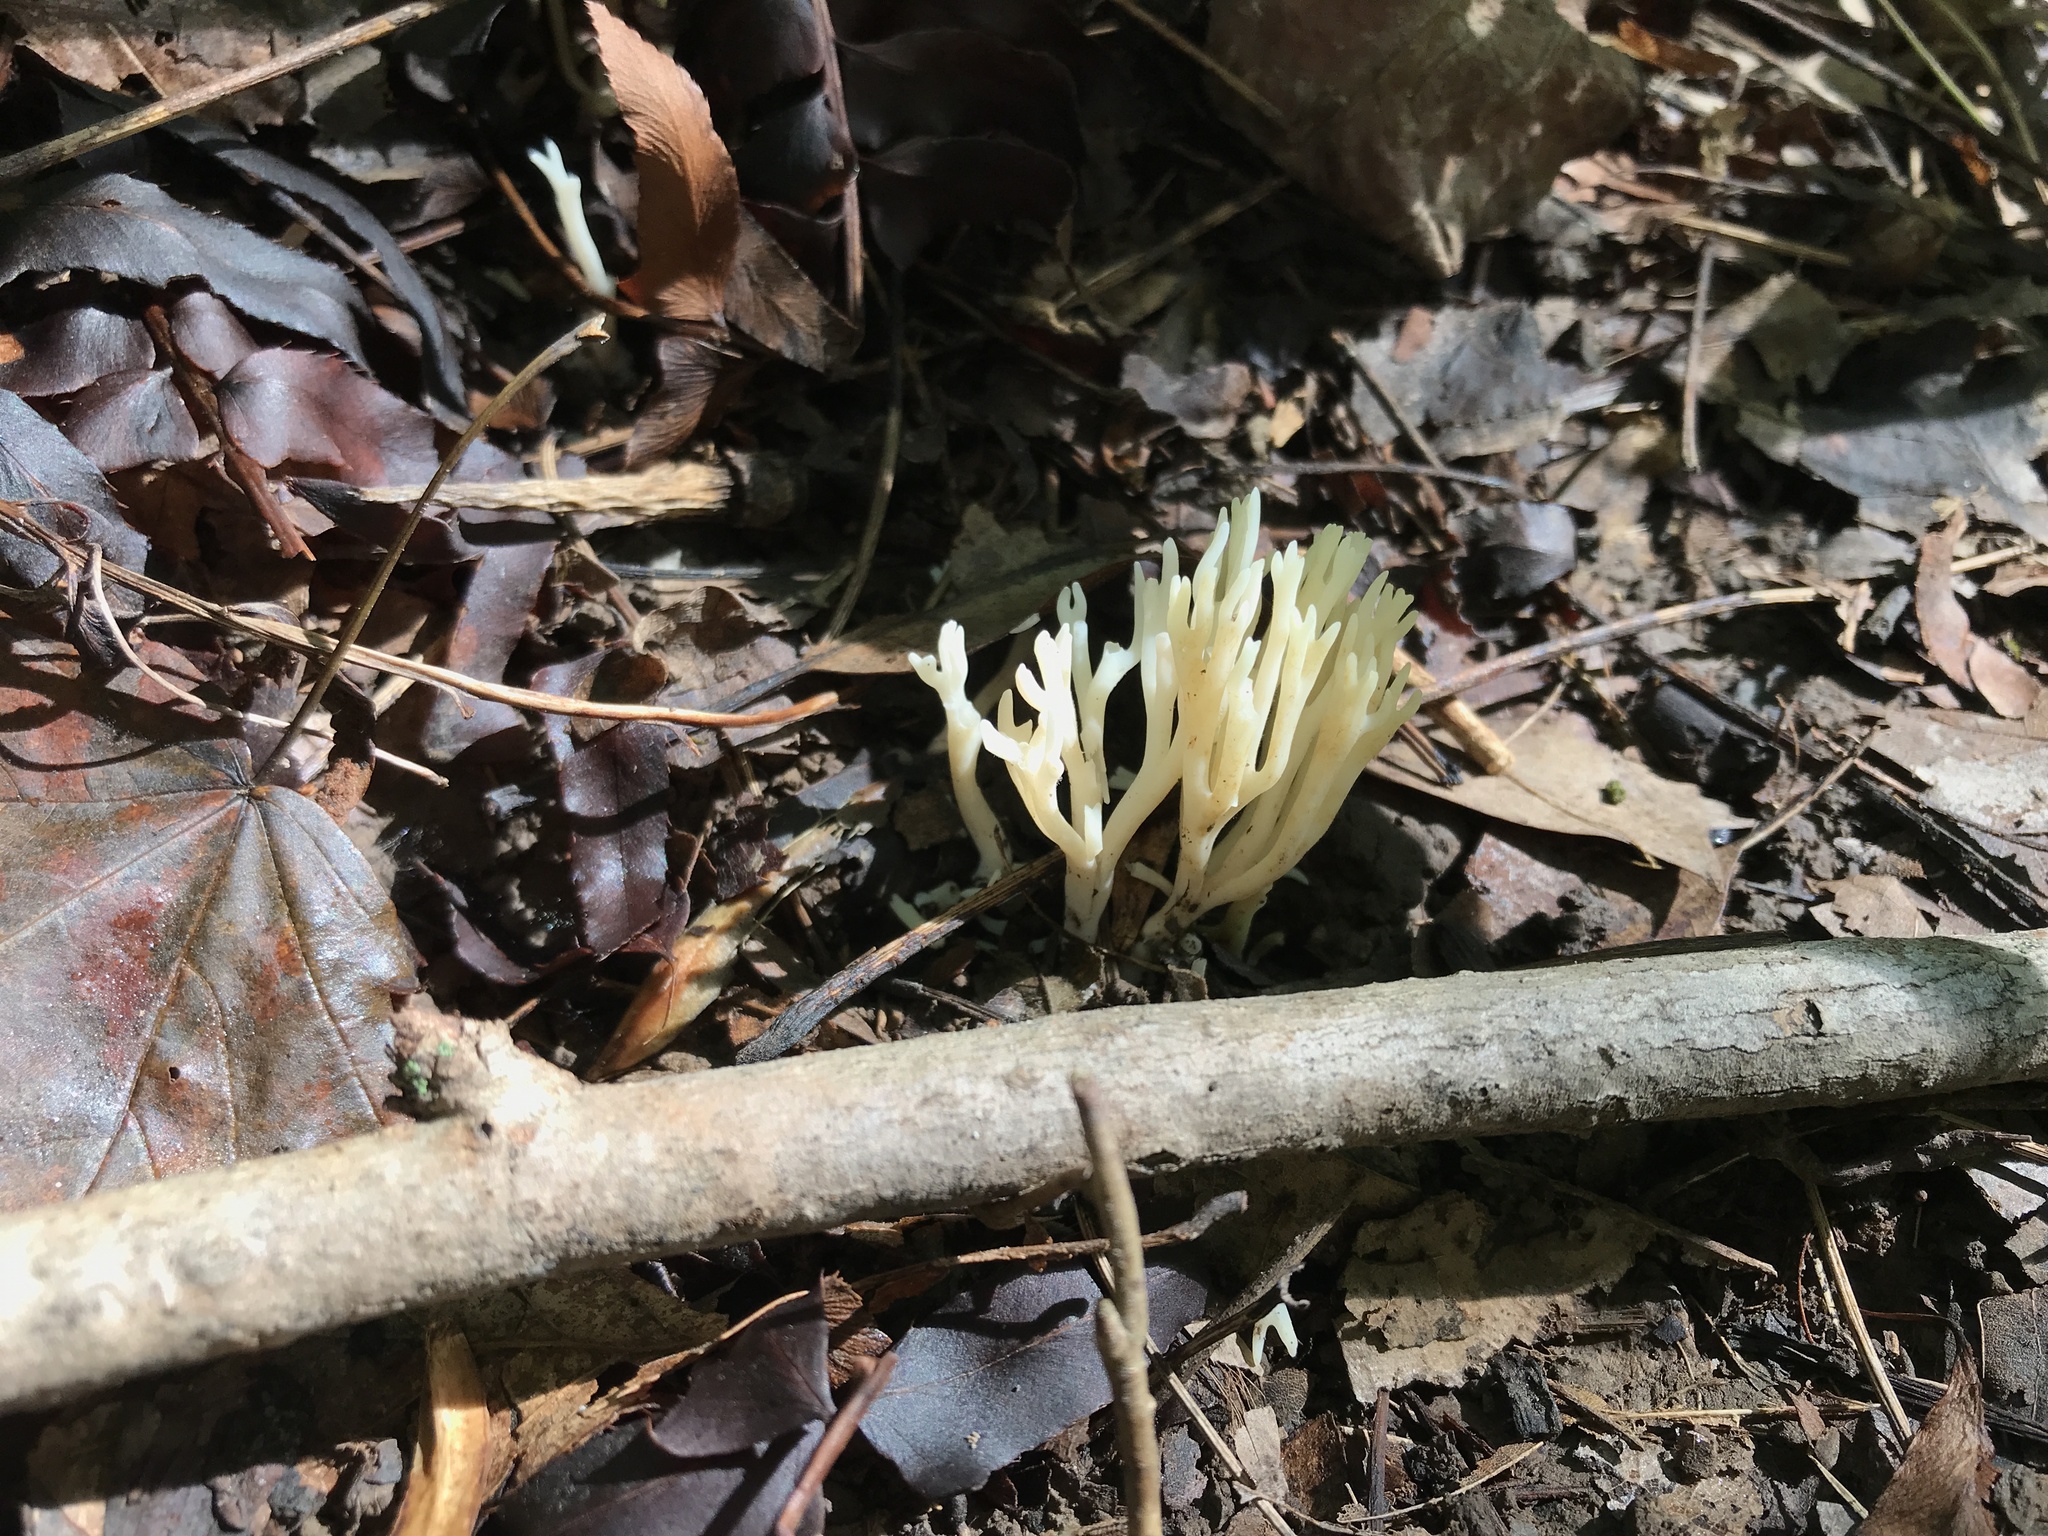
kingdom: Fungi
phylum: Basidiomycota
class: Agaricomycetes
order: Agaricales
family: Clavariaceae
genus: Ramariopsis
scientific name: Ramariopsis kunzei
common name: Ivory coral
